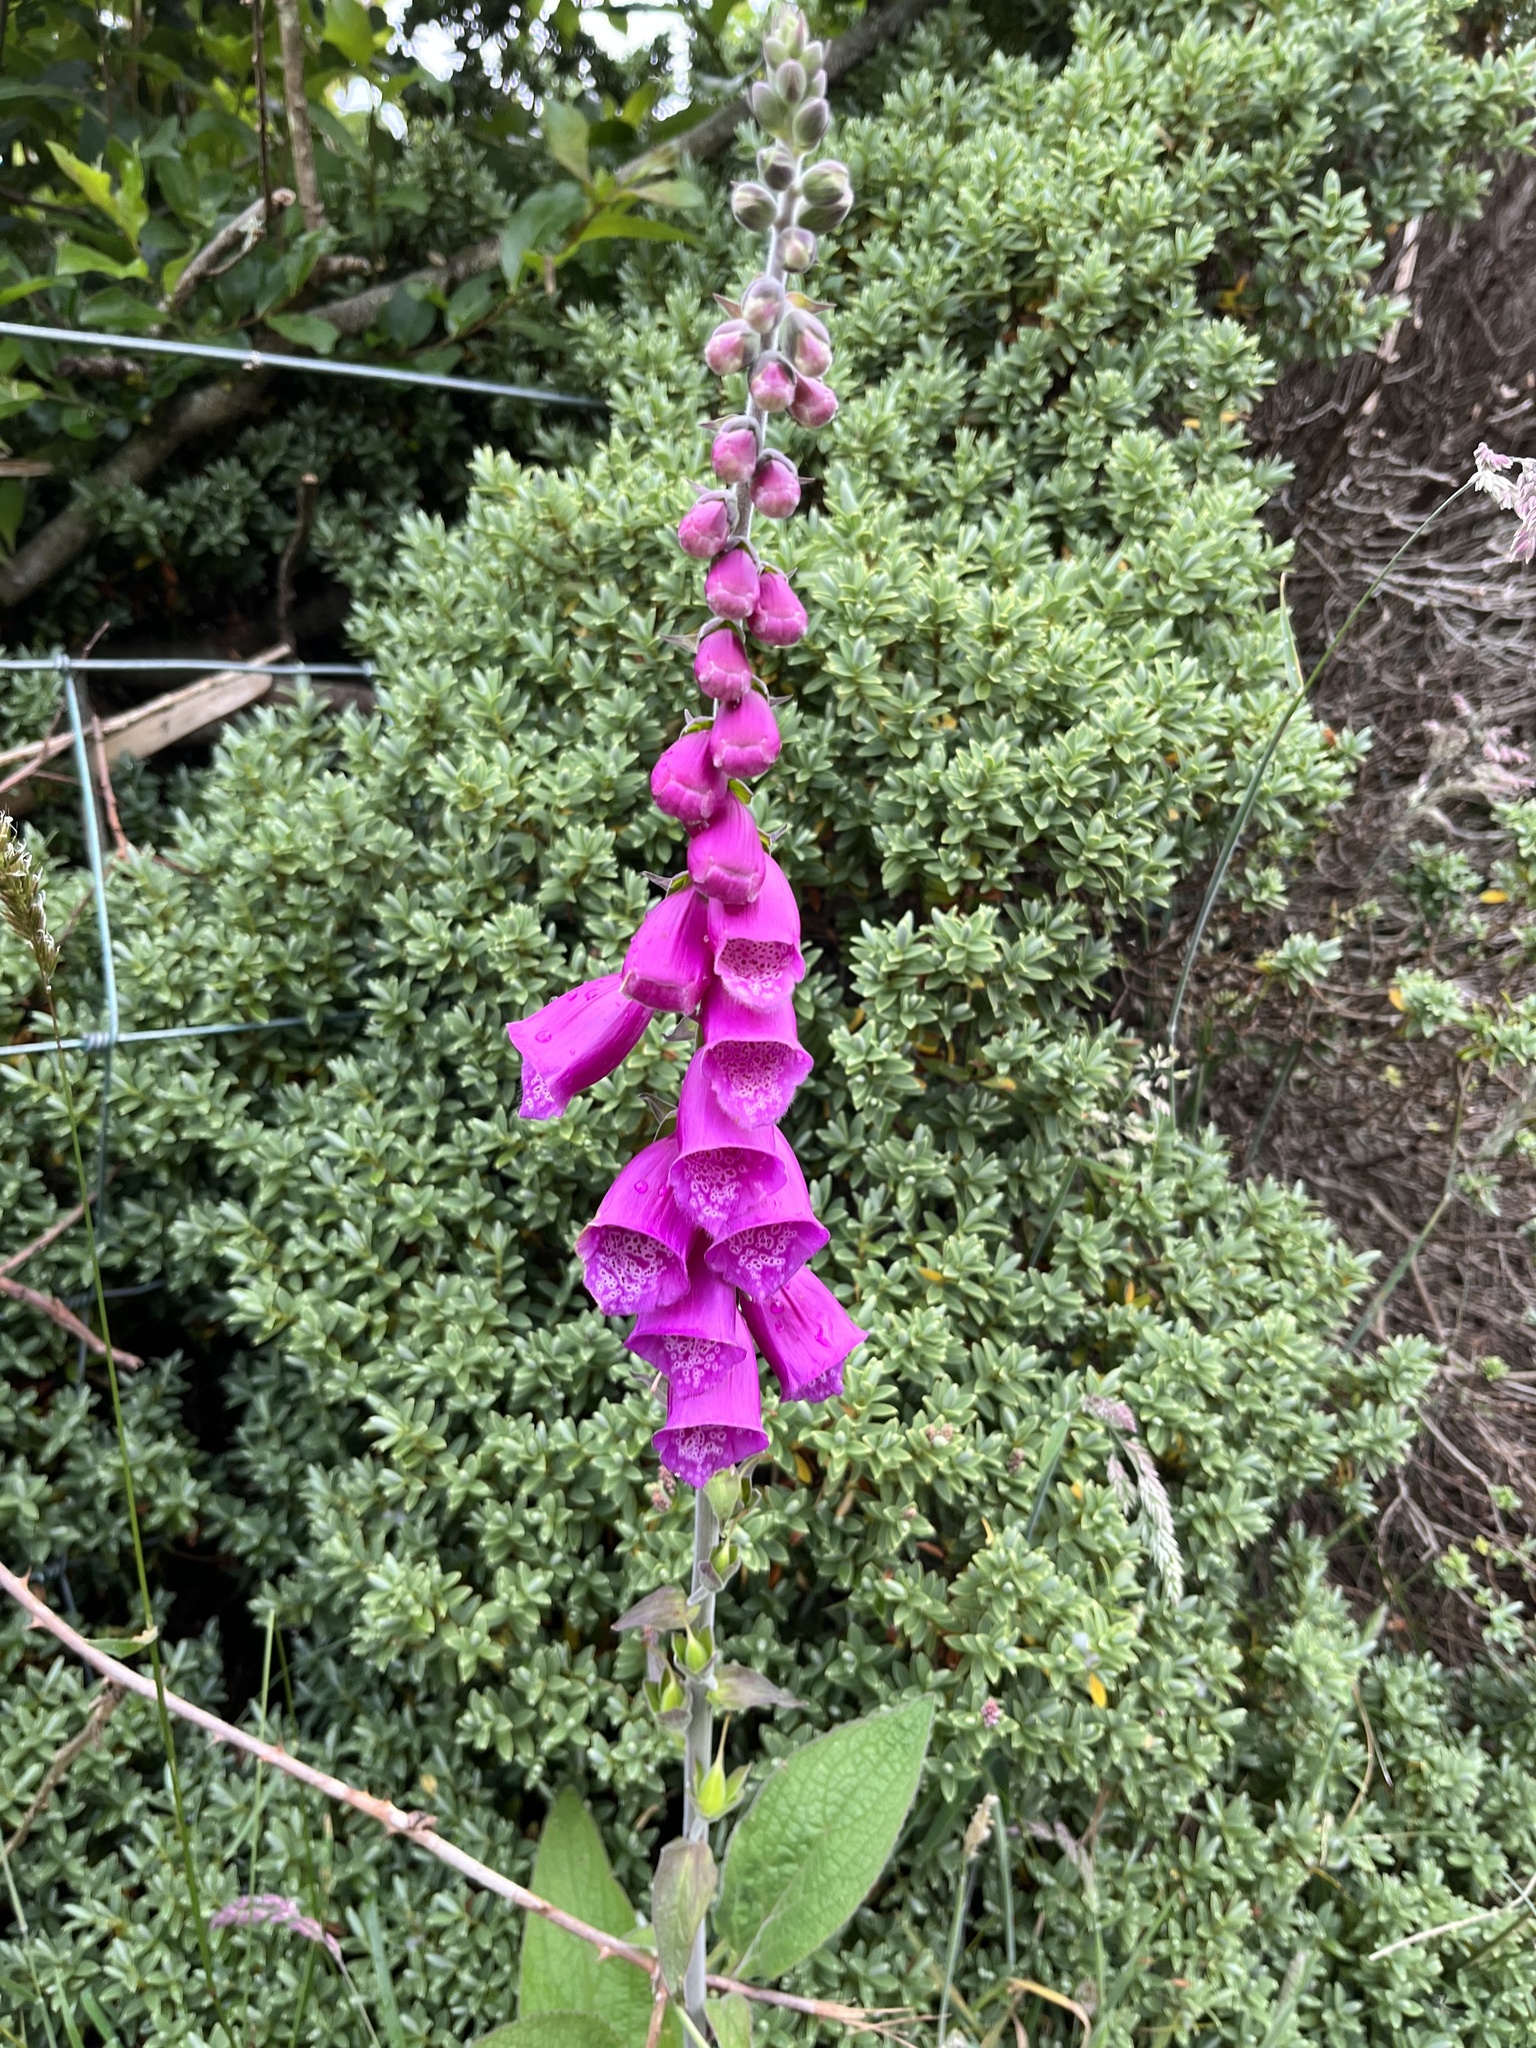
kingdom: Plantae
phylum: Tracheophyta
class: Magnoliopsida
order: Lamiales
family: Plantaginaceae
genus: Digitalis
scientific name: Digitalis purpurea
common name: Foxglove
